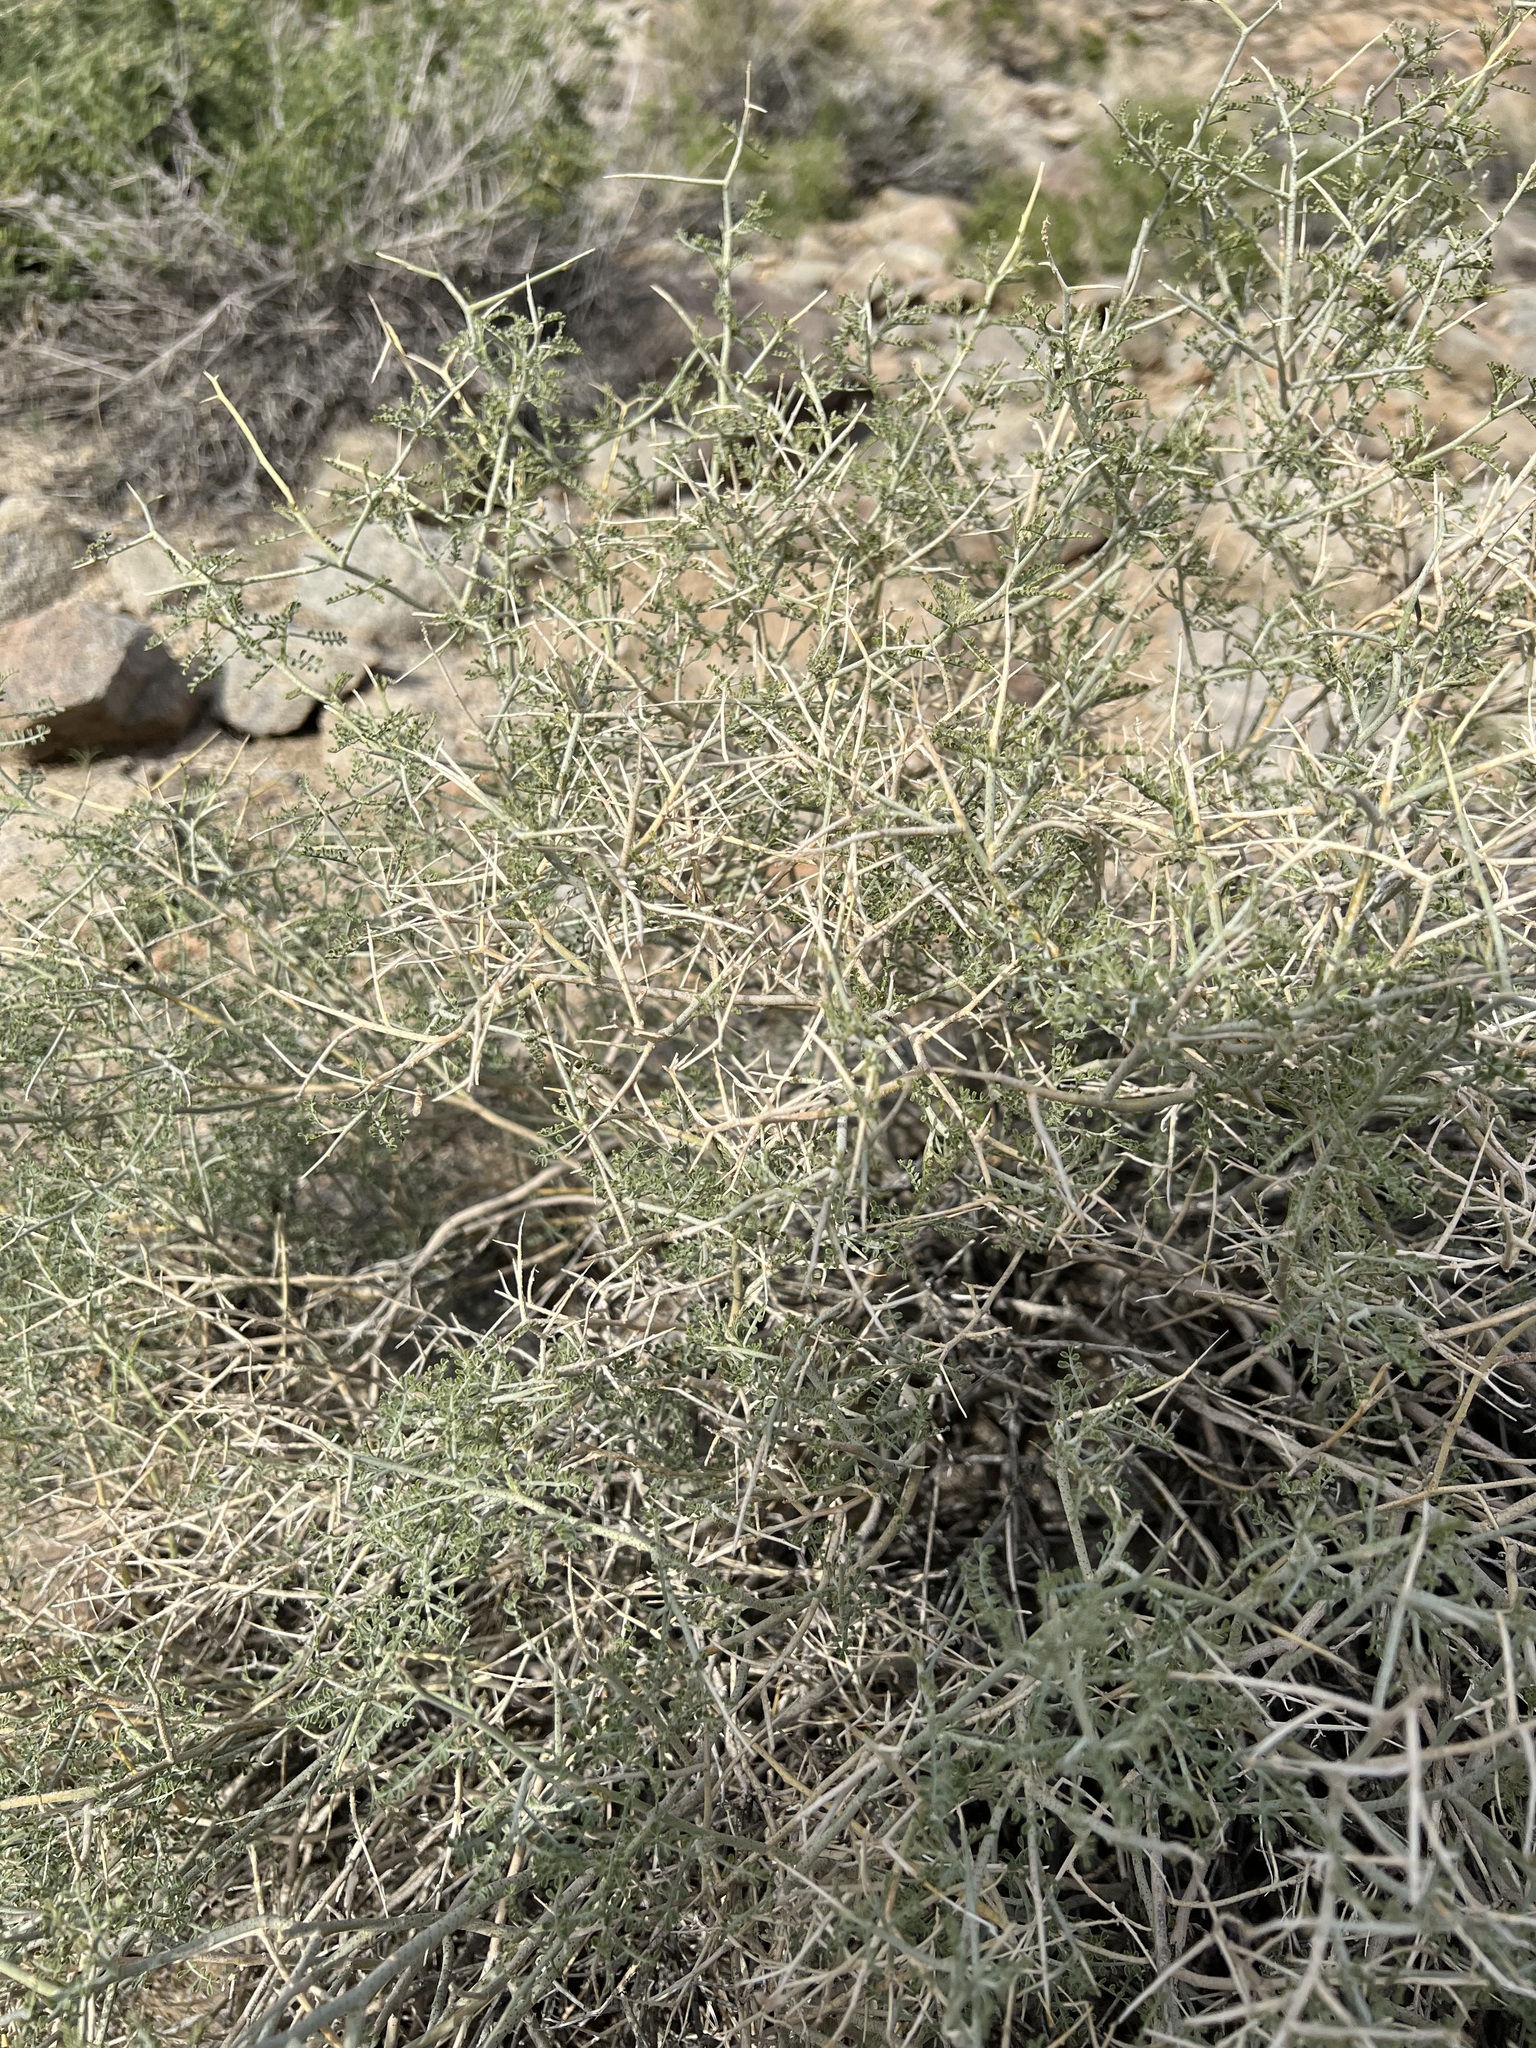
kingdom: Plantae
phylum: Tracheophyta
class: Magnoliopsida
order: Fabales
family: Fabaceae
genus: Psorothamnus
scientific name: Psorothamnus polydenius
